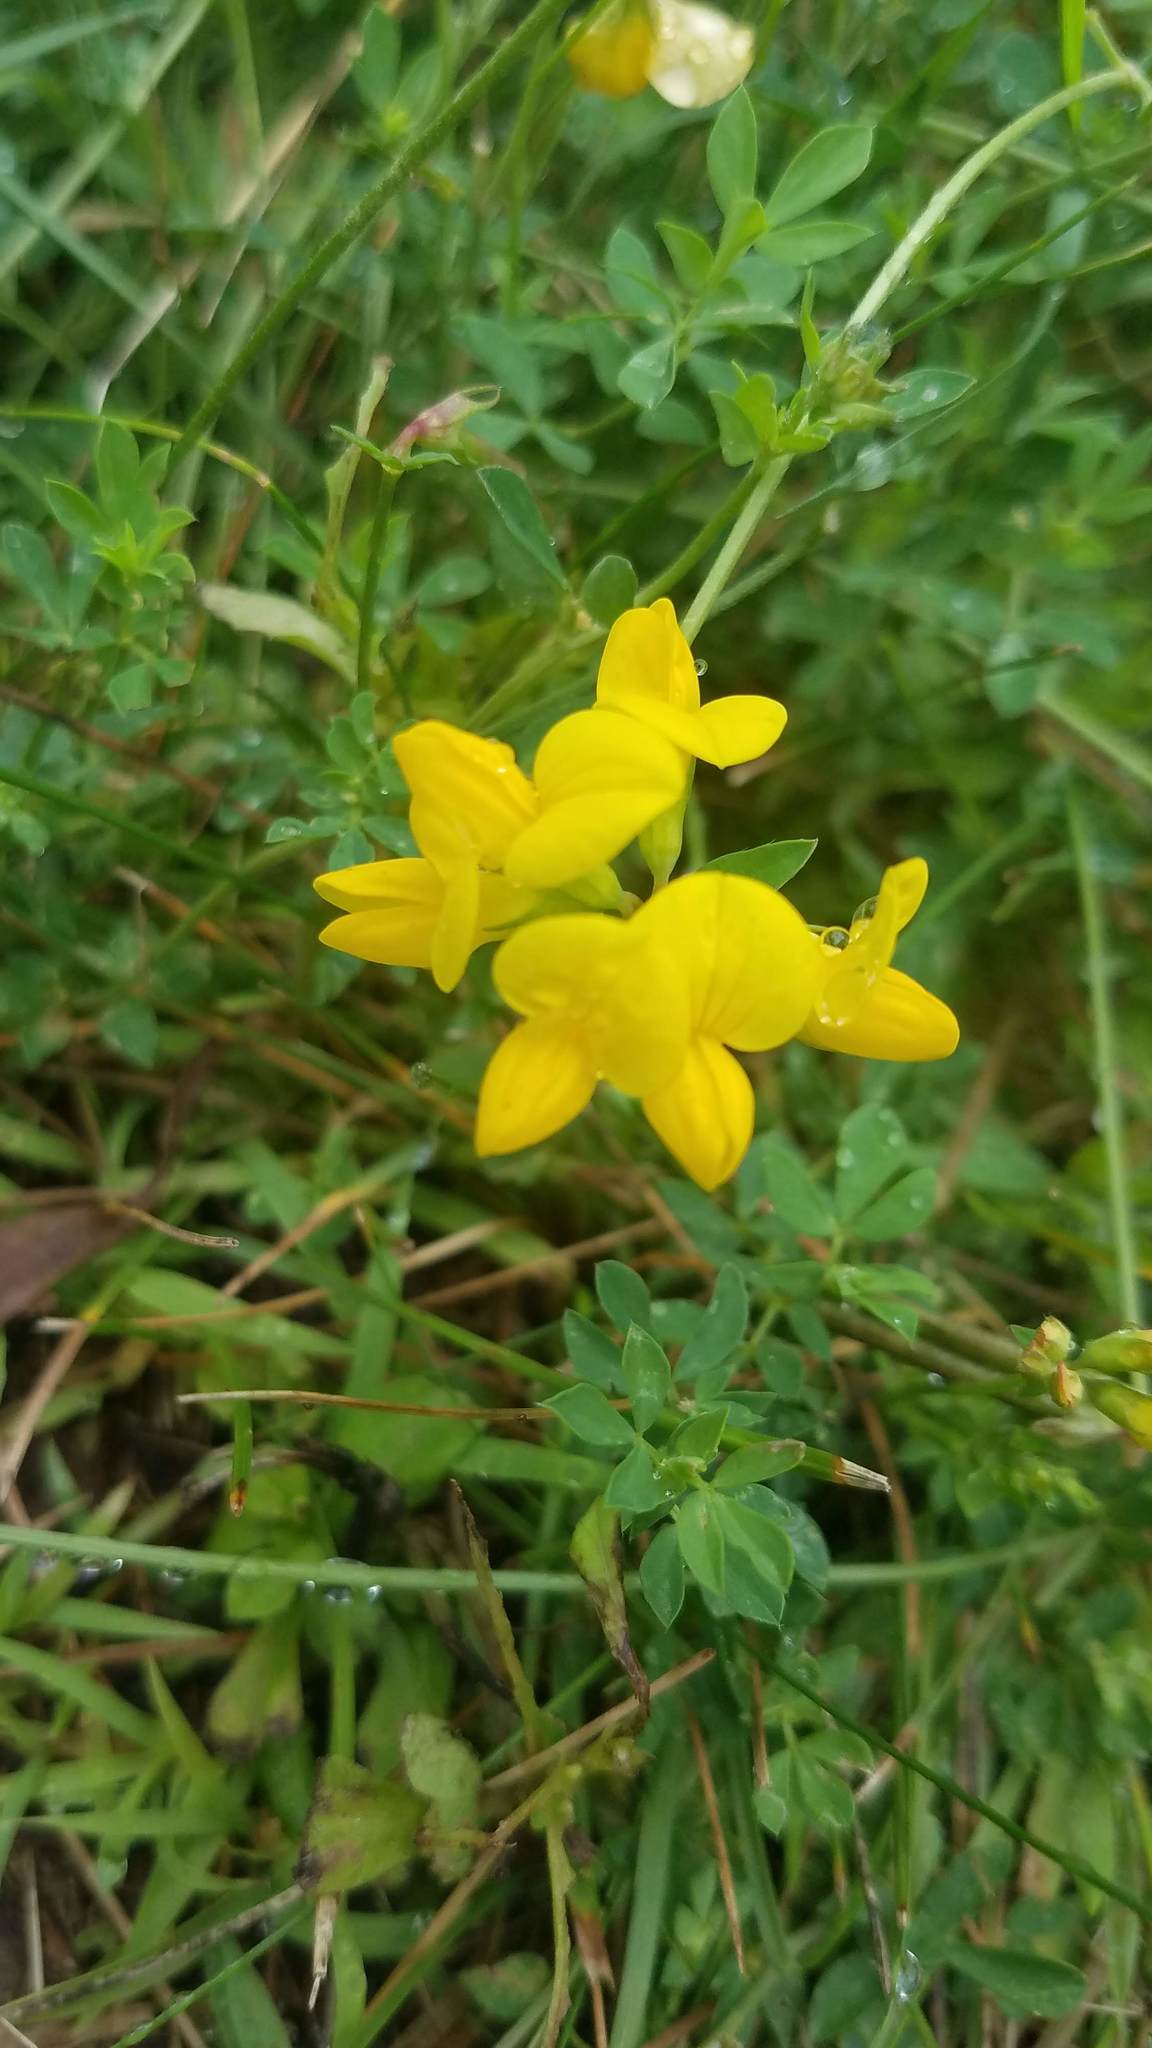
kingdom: Plantae
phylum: Tracheophyta
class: Magnoliopsida
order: Fabales
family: Fabaceae
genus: Lotus
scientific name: Lotus corniculatus
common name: Common bird's-foot-trefoil
